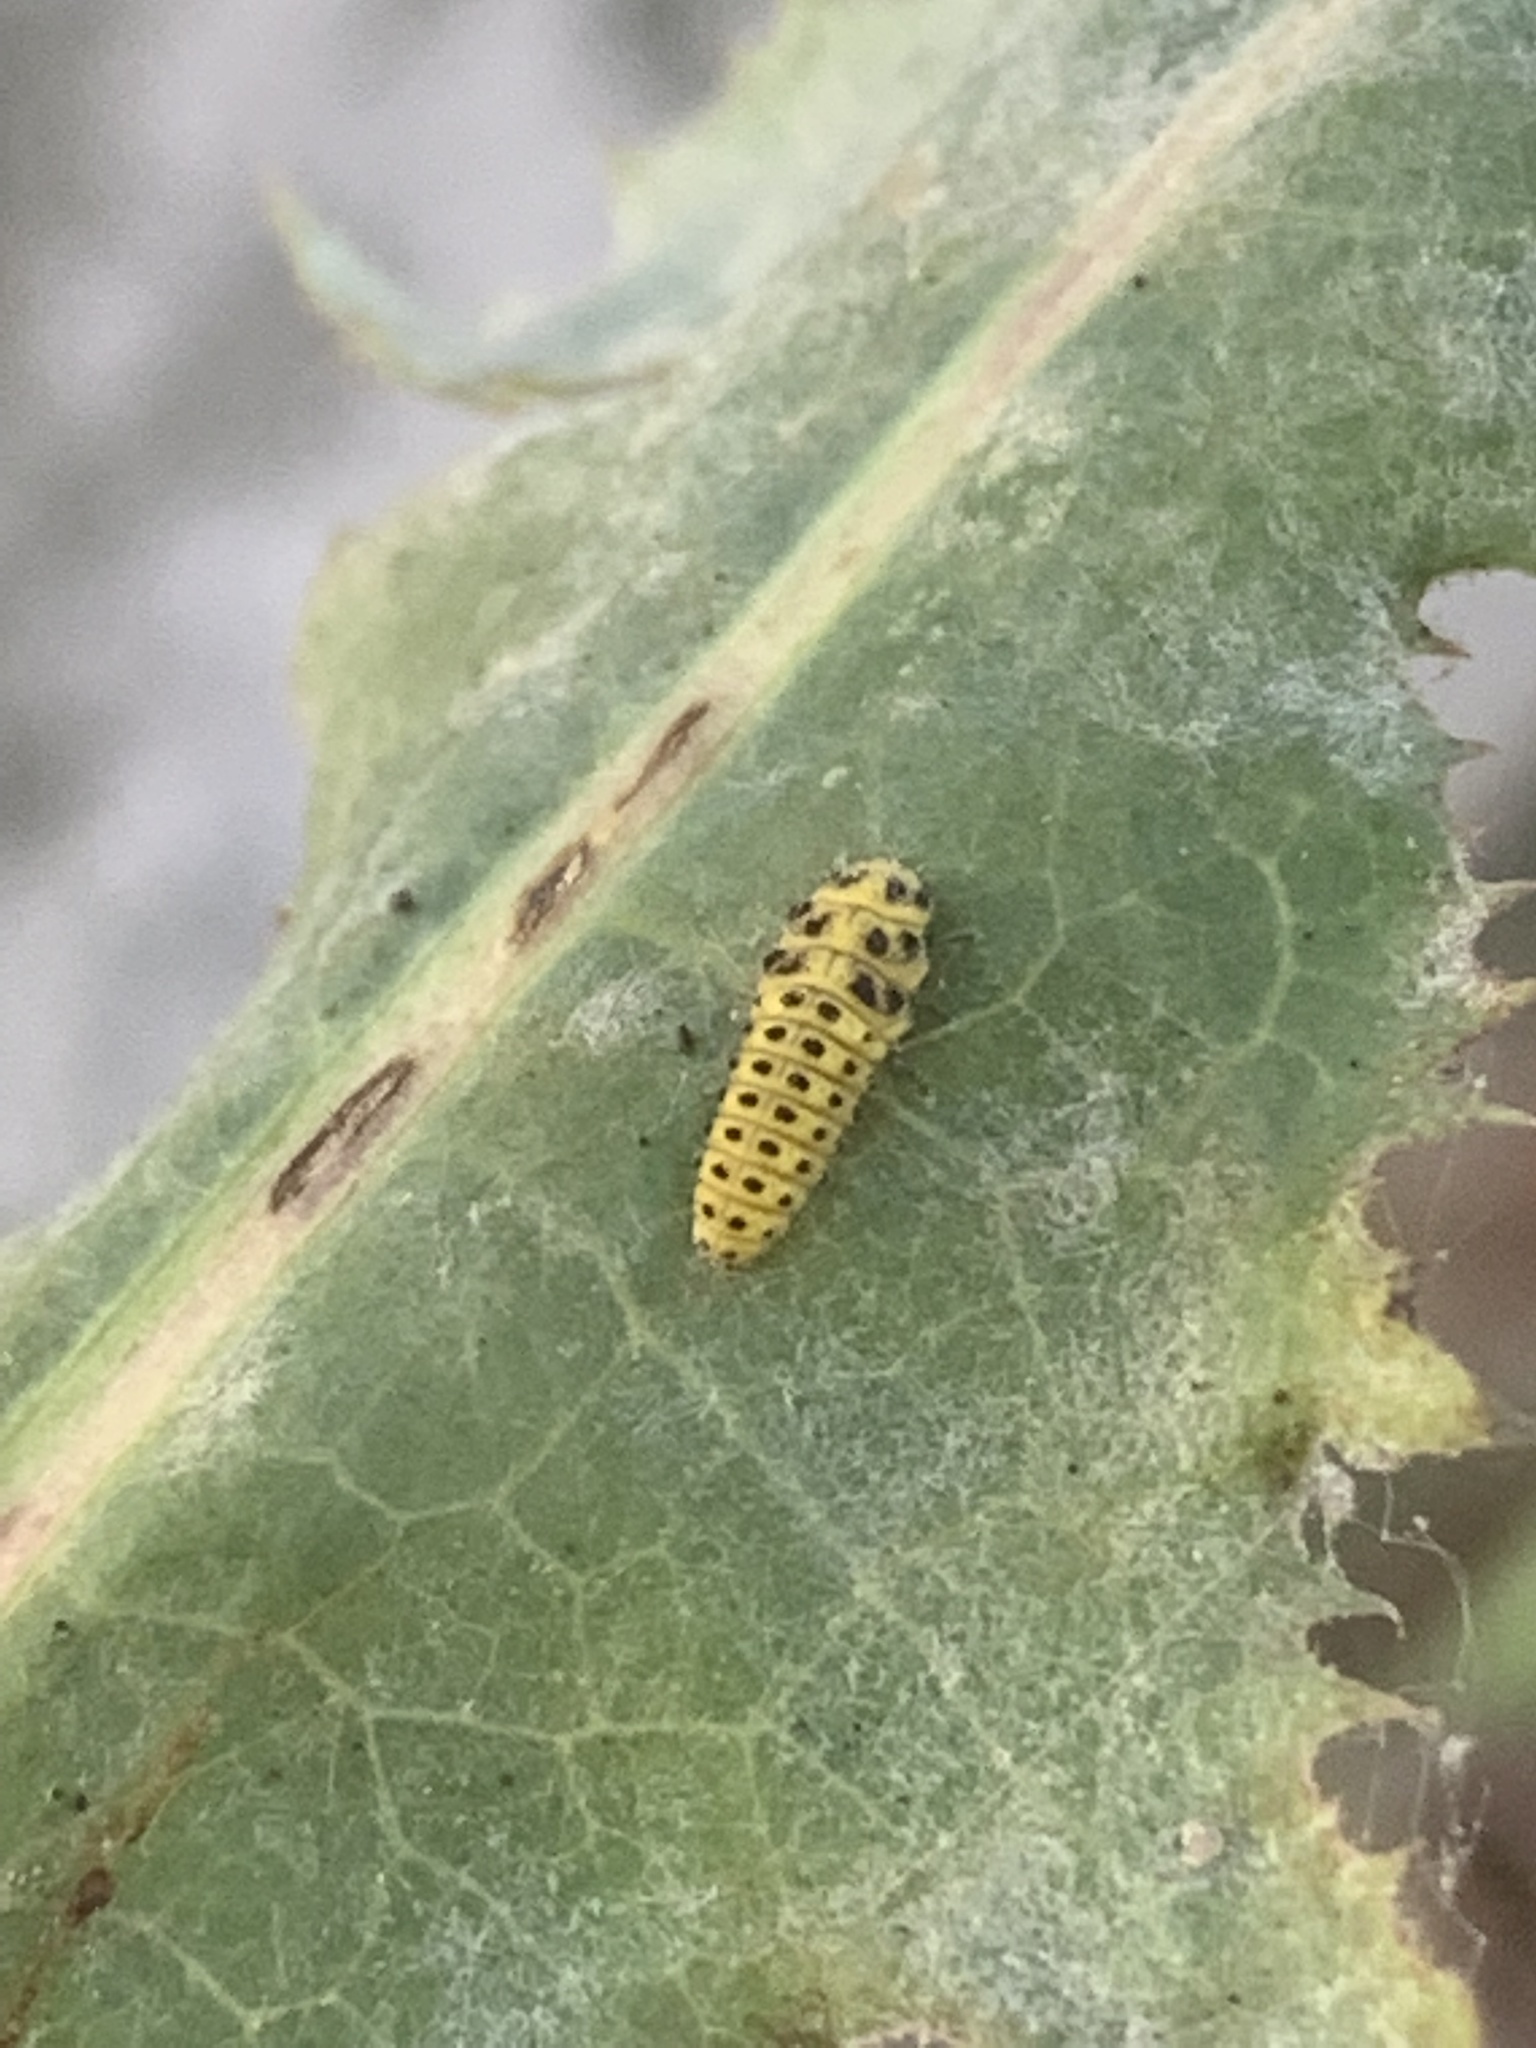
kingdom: Animalia
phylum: Arthropoda
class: Insecta
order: Coleoptera
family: Coccinellidae
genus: Psyllobora
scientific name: Psyllobora vigintiduopunctata
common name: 22-spot ladybird
